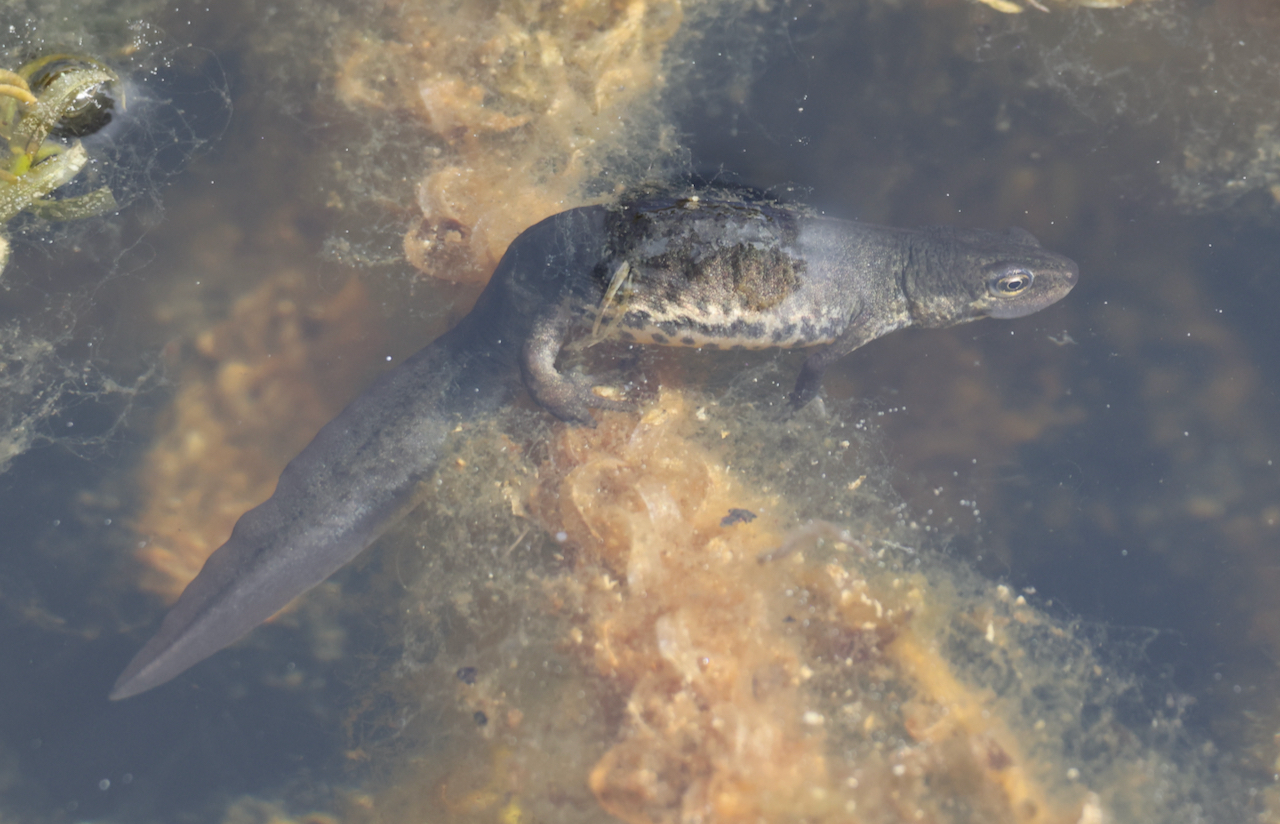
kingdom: Animalia
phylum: Chordata
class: Amphibia
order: Caudata
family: Salamandridae
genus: Lissotriton
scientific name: Lissotriton vulgaris
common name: Smooth newt
